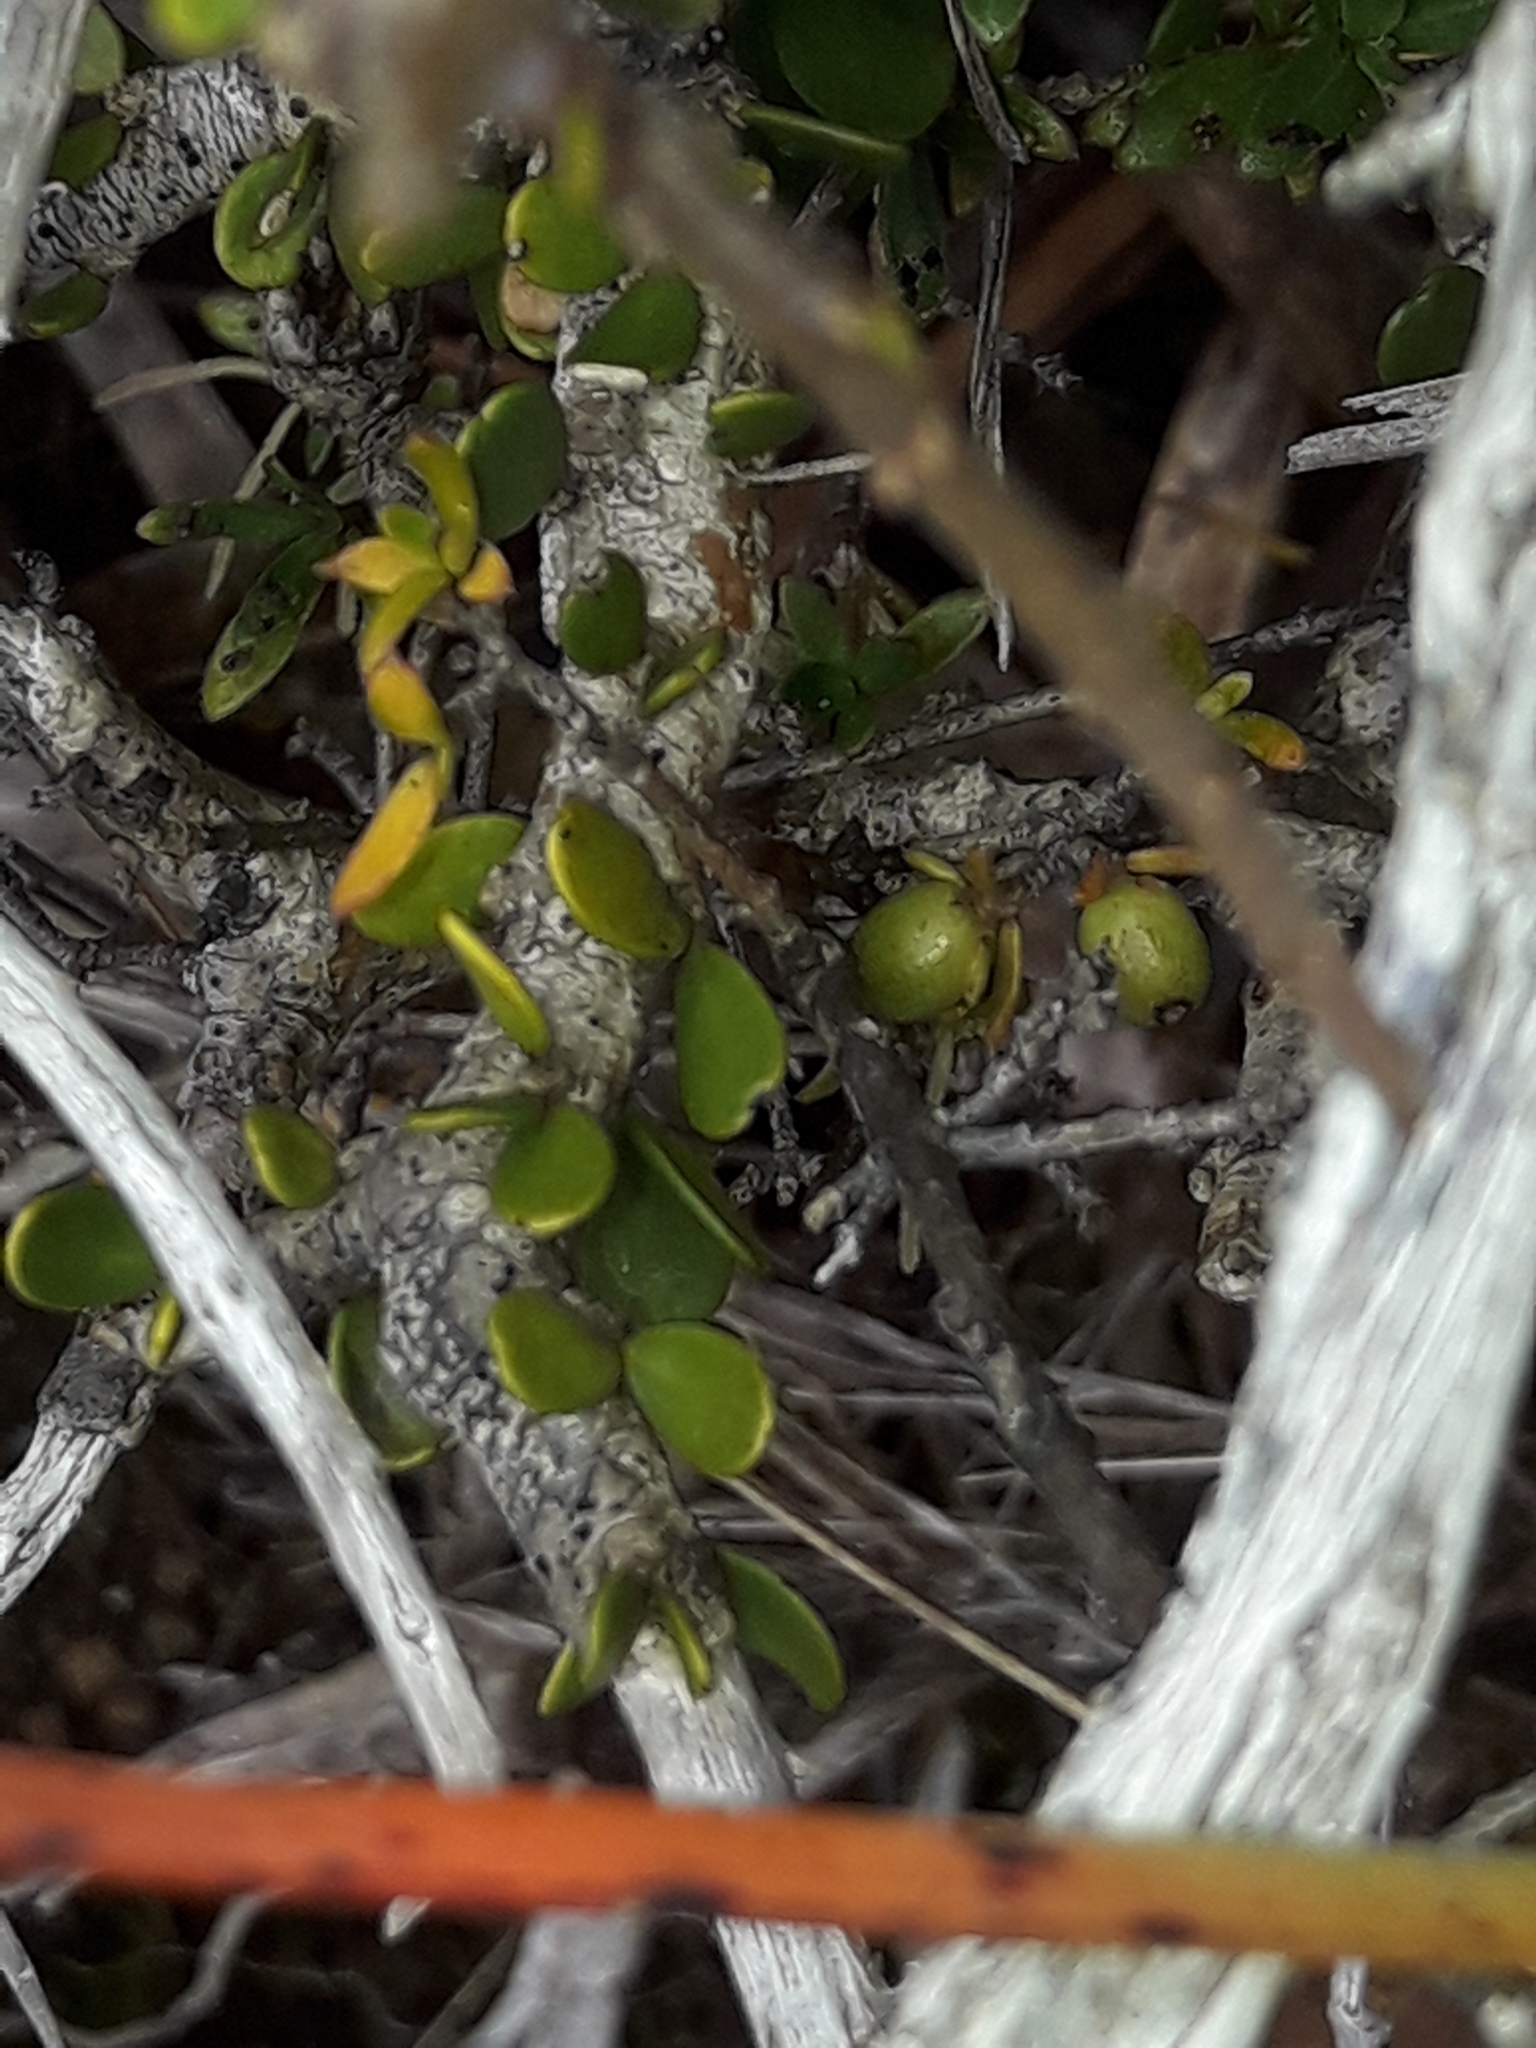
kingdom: Plantae
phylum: Tracheophyta
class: Magnoliopsida
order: Malpighiales
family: Violaceae
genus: Melicytus
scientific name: Melicytus alpinus
